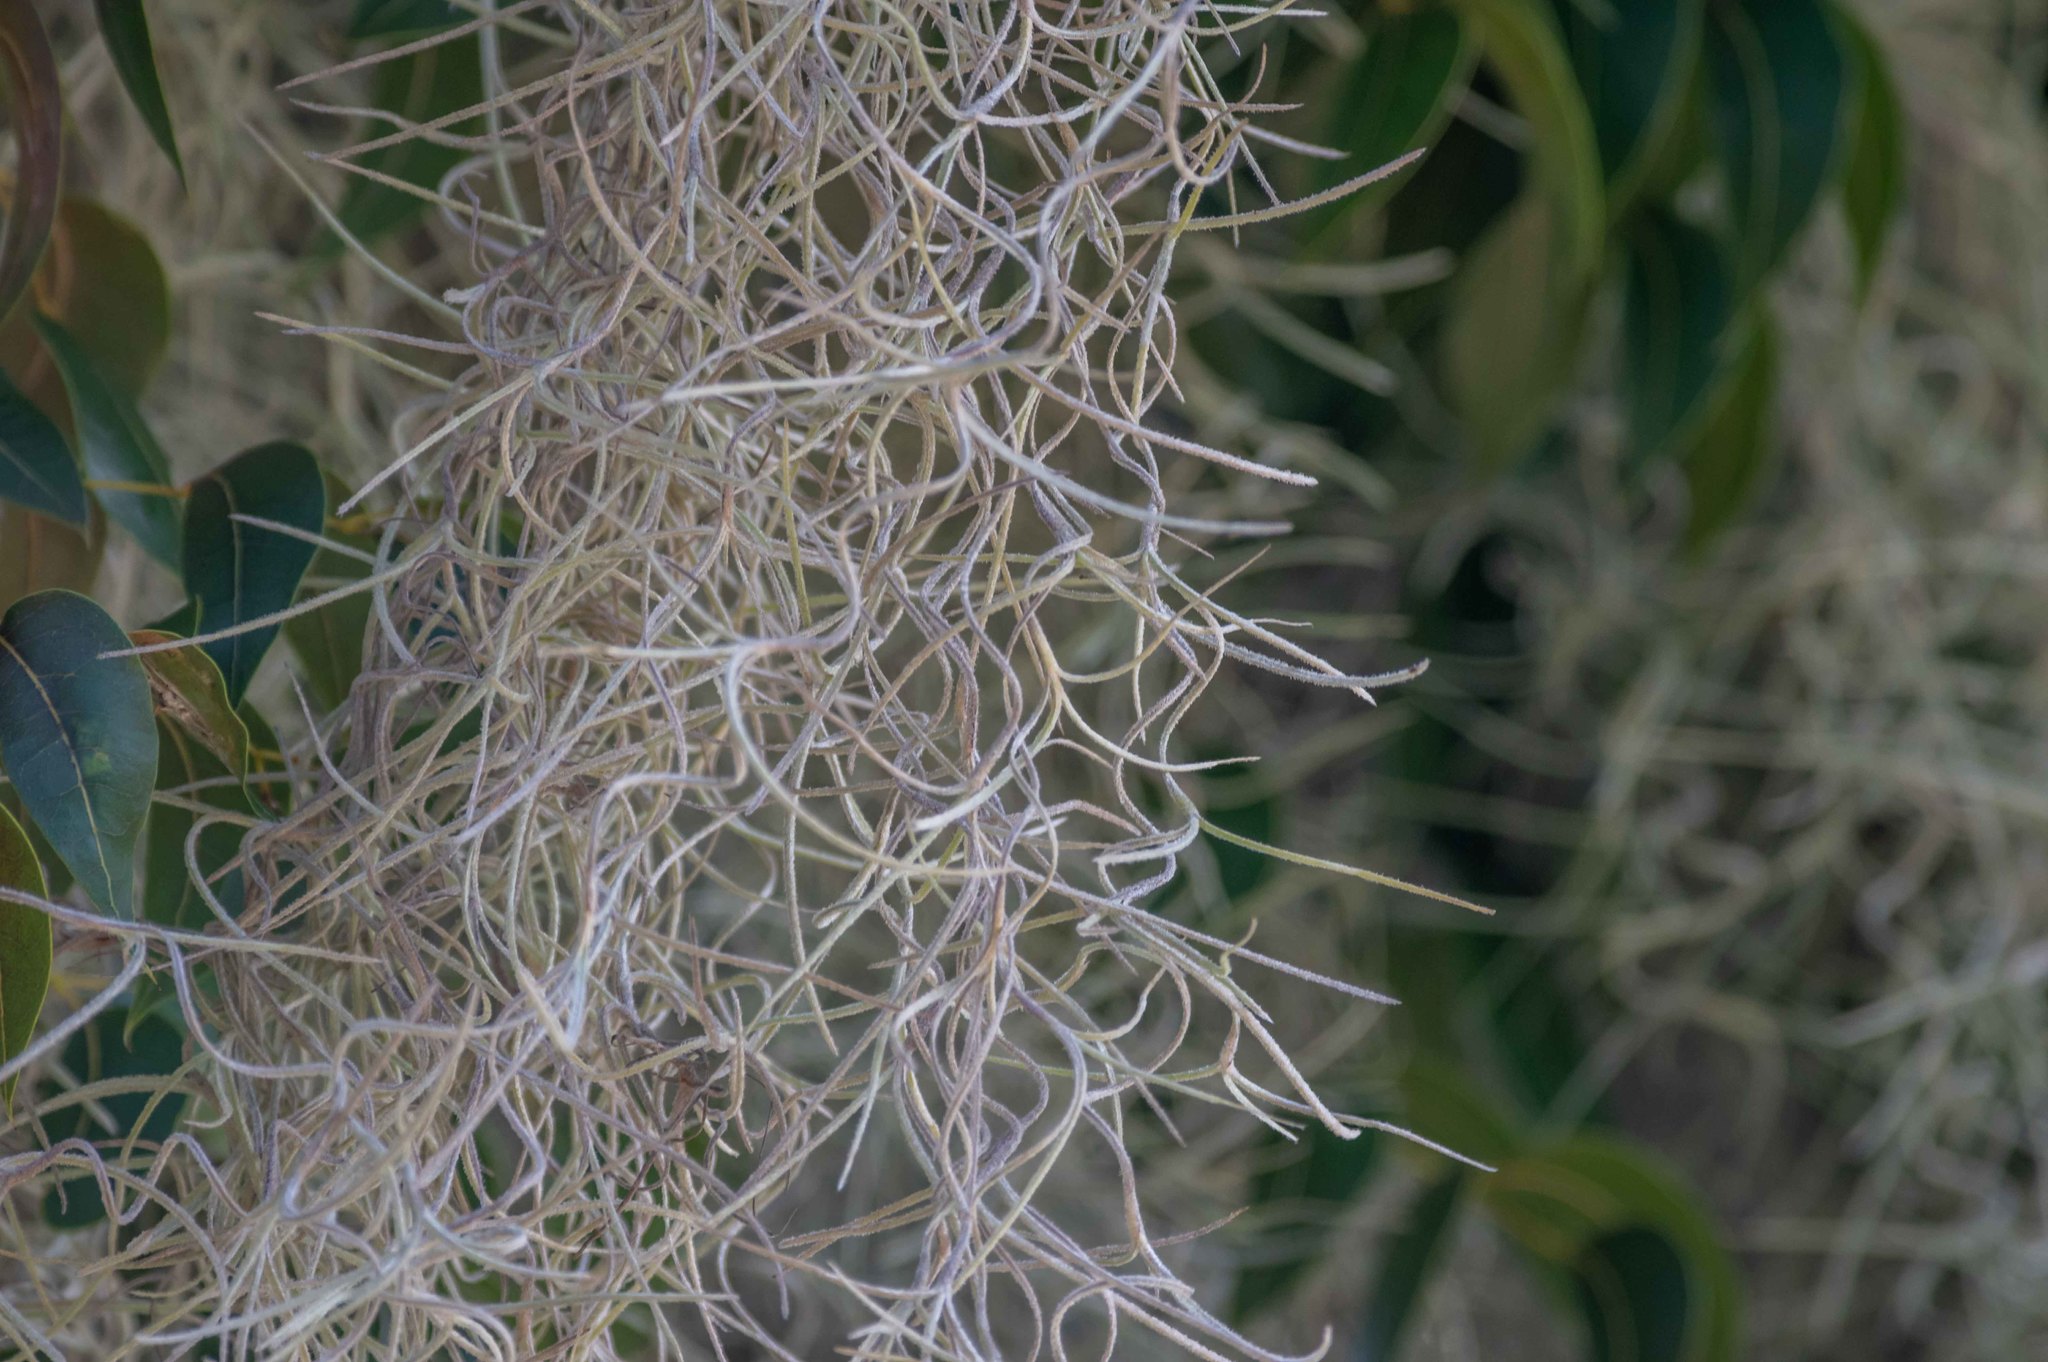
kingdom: Plantae
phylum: Tracheophyta
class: Liliopsida
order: Poales
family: Bromeliaceae
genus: Tillandsia
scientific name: Tillandsia usneoides
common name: Spanish moss
